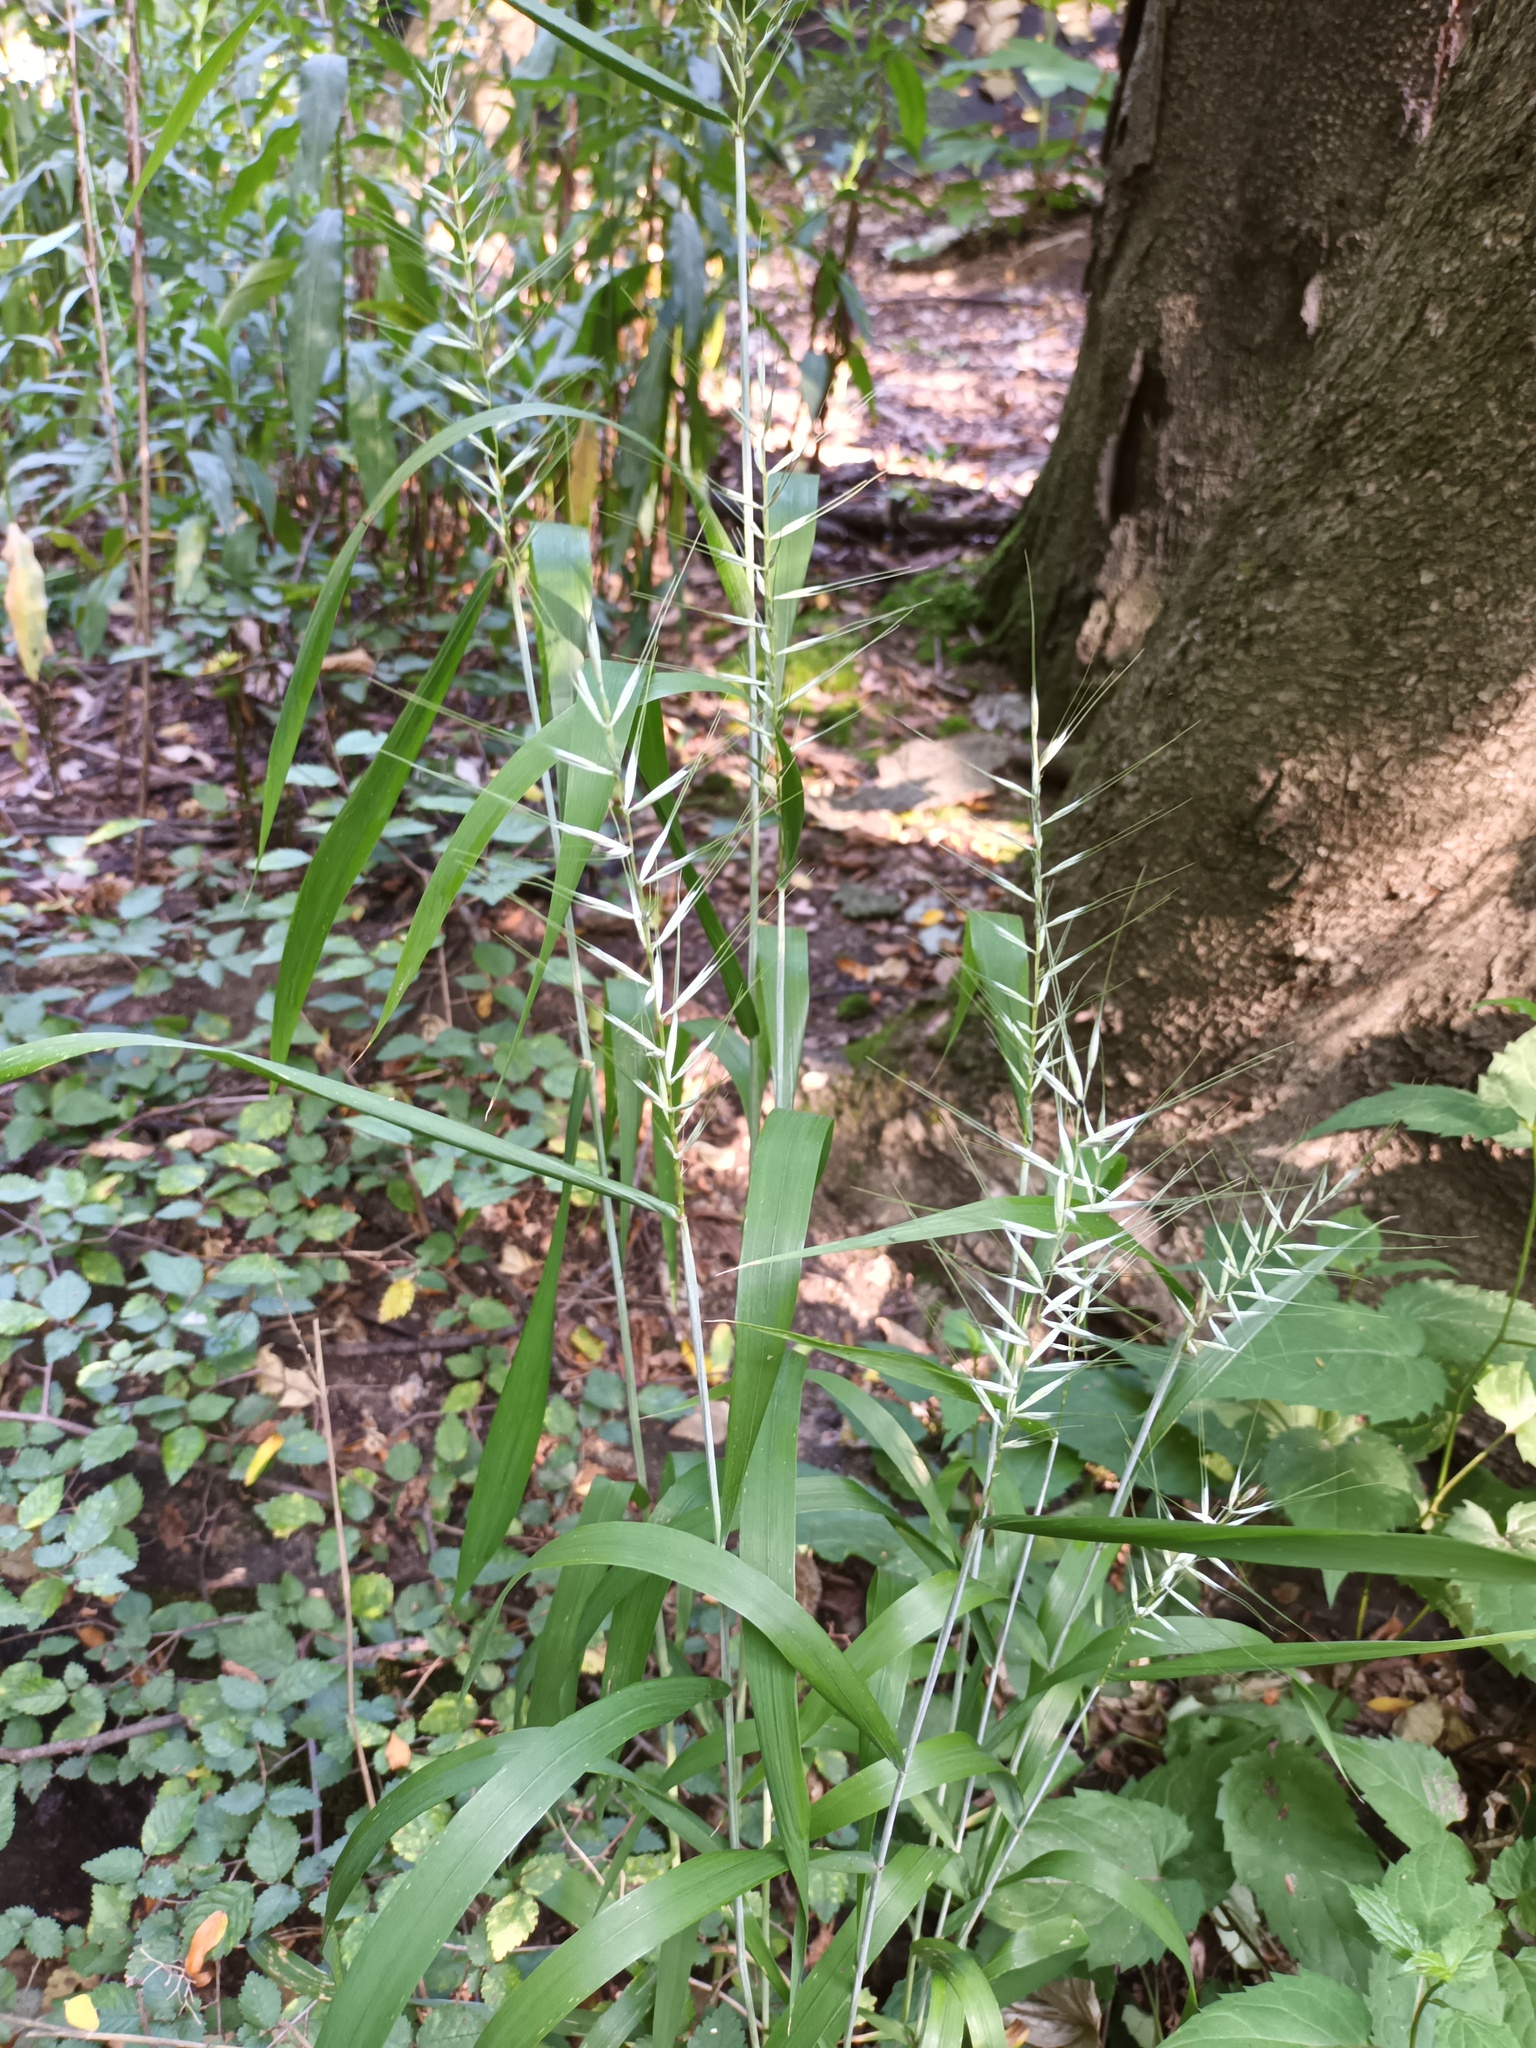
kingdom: Plantae
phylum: Tracheophyta
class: Liliopsida
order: Poales
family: Poaceae
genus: Elymus
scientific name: Elymus hystrix
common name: Bottlebrush grass
